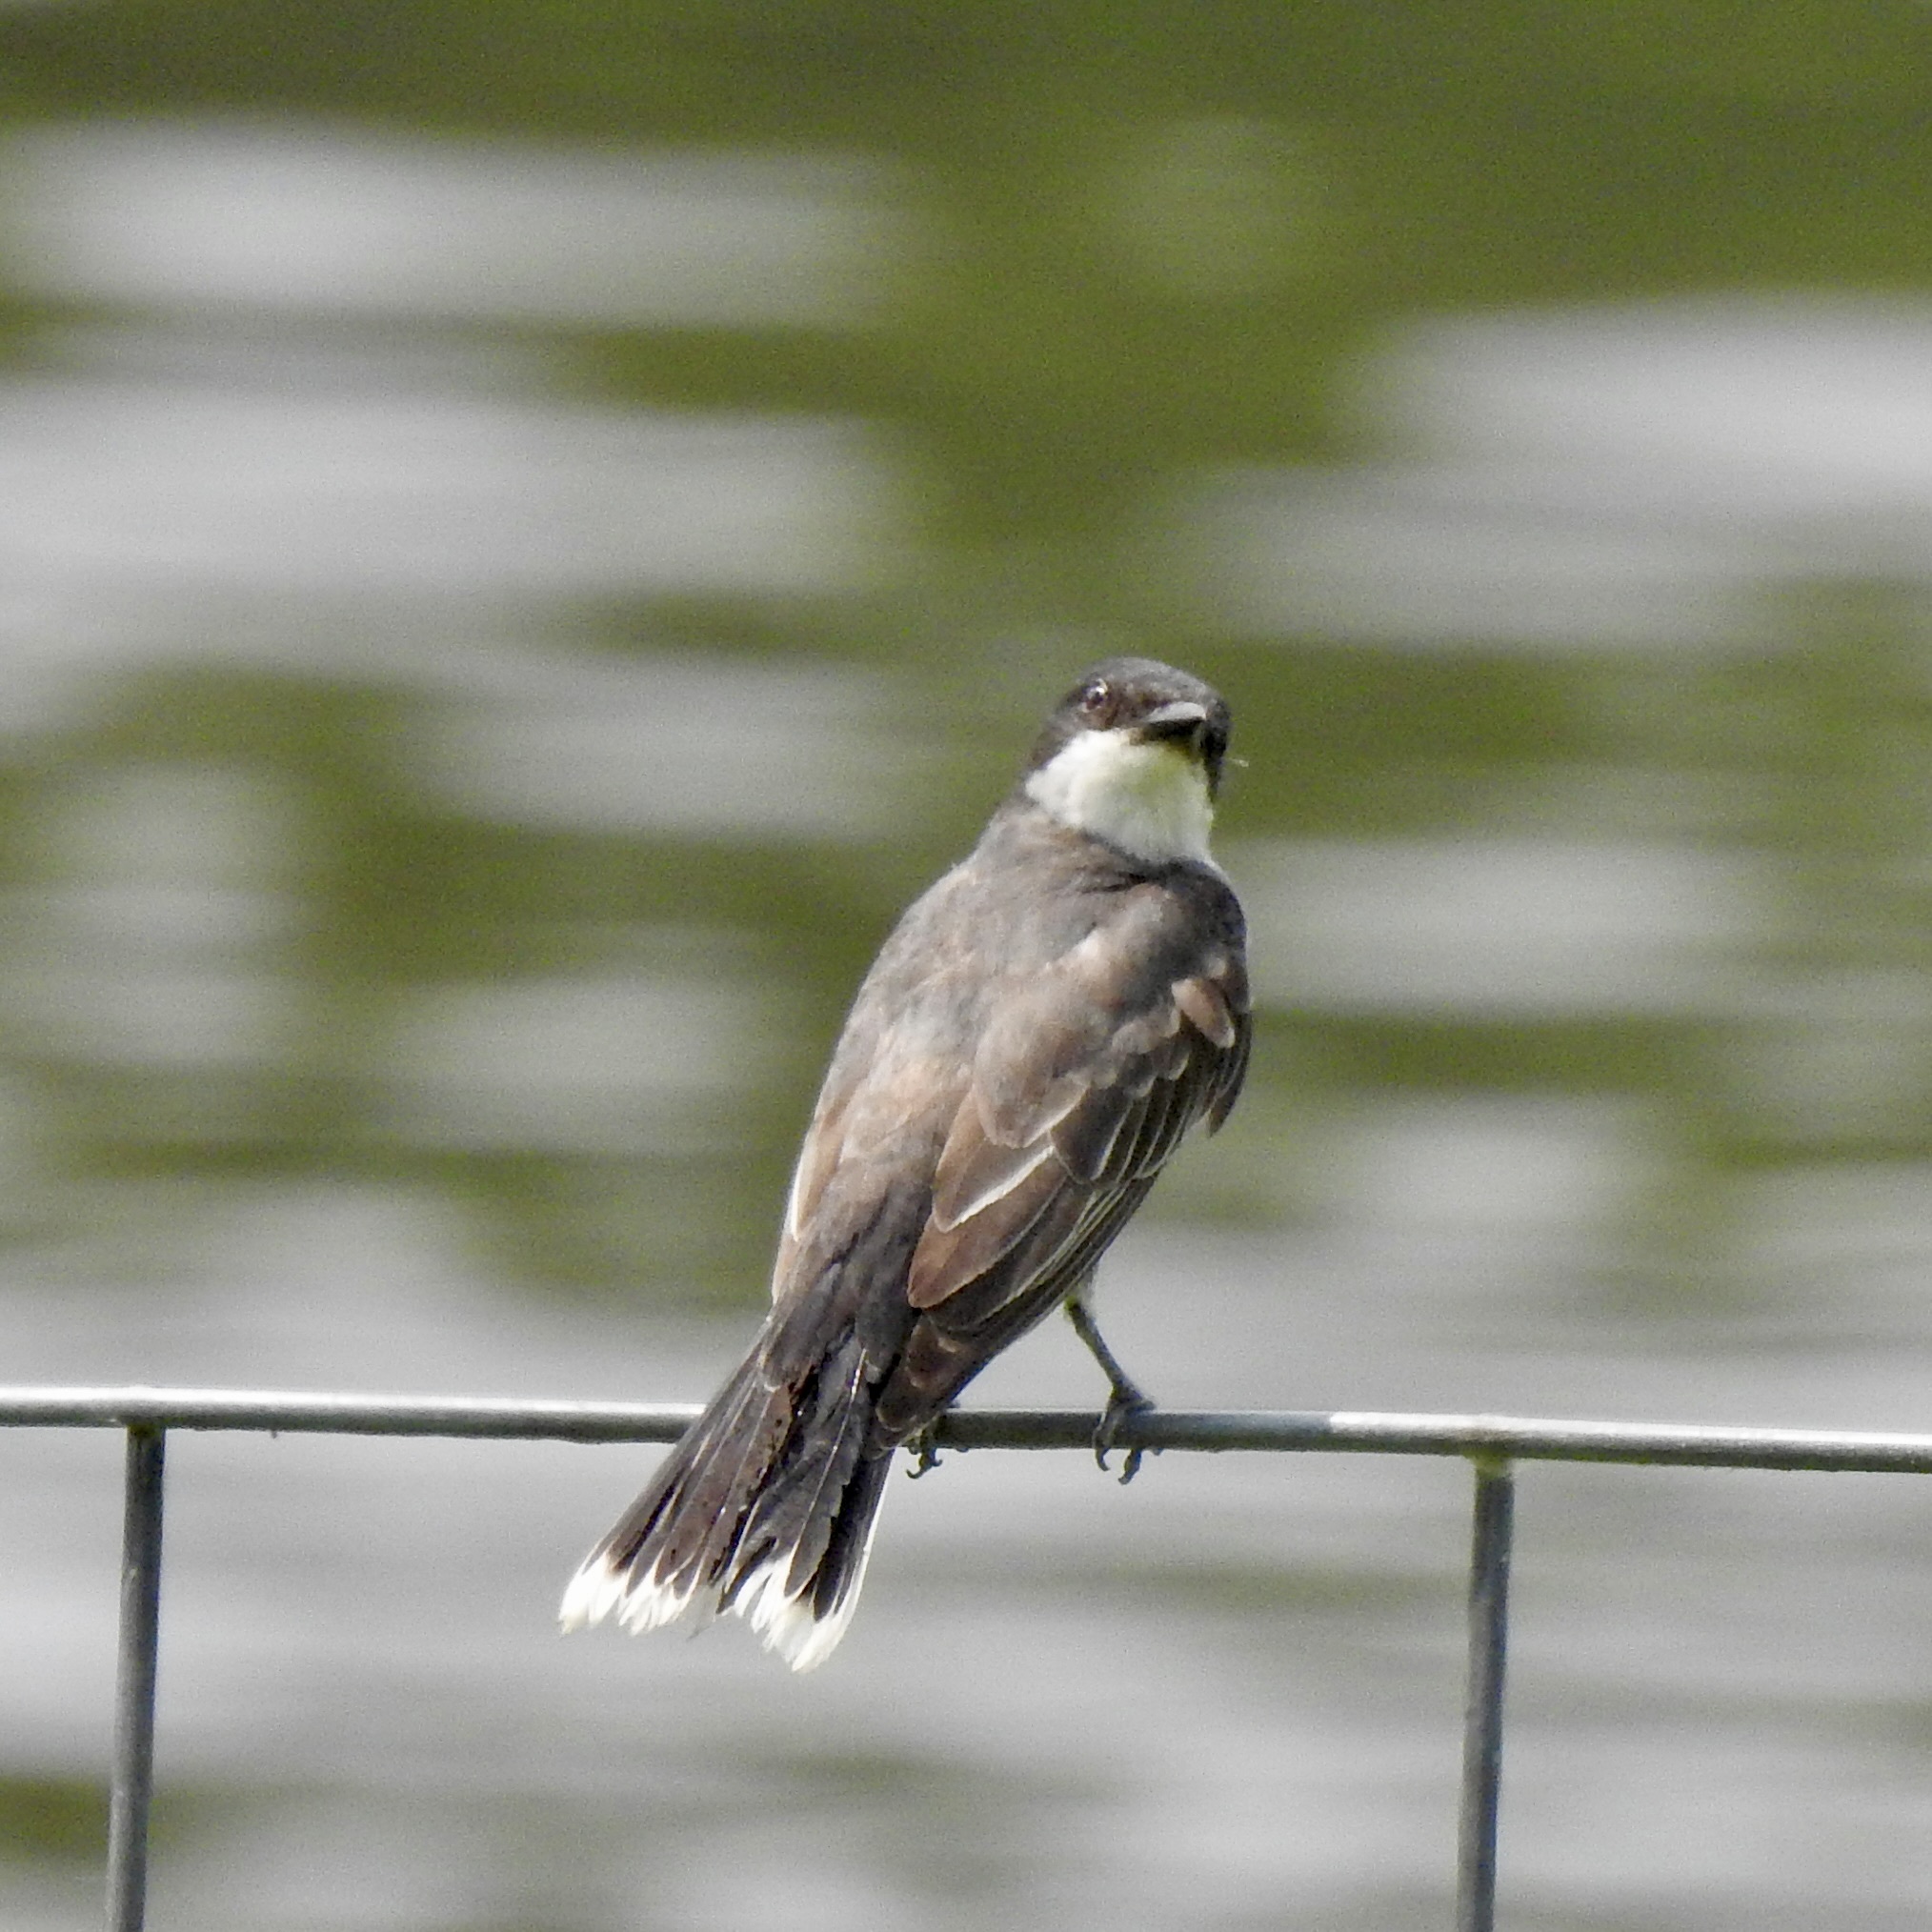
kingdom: Animalia
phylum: Chordata
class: Aves
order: Passeriformes
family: Tyrannidae
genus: Tyrannus
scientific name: Tyrannus tyrannus
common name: Eastern kingbird
